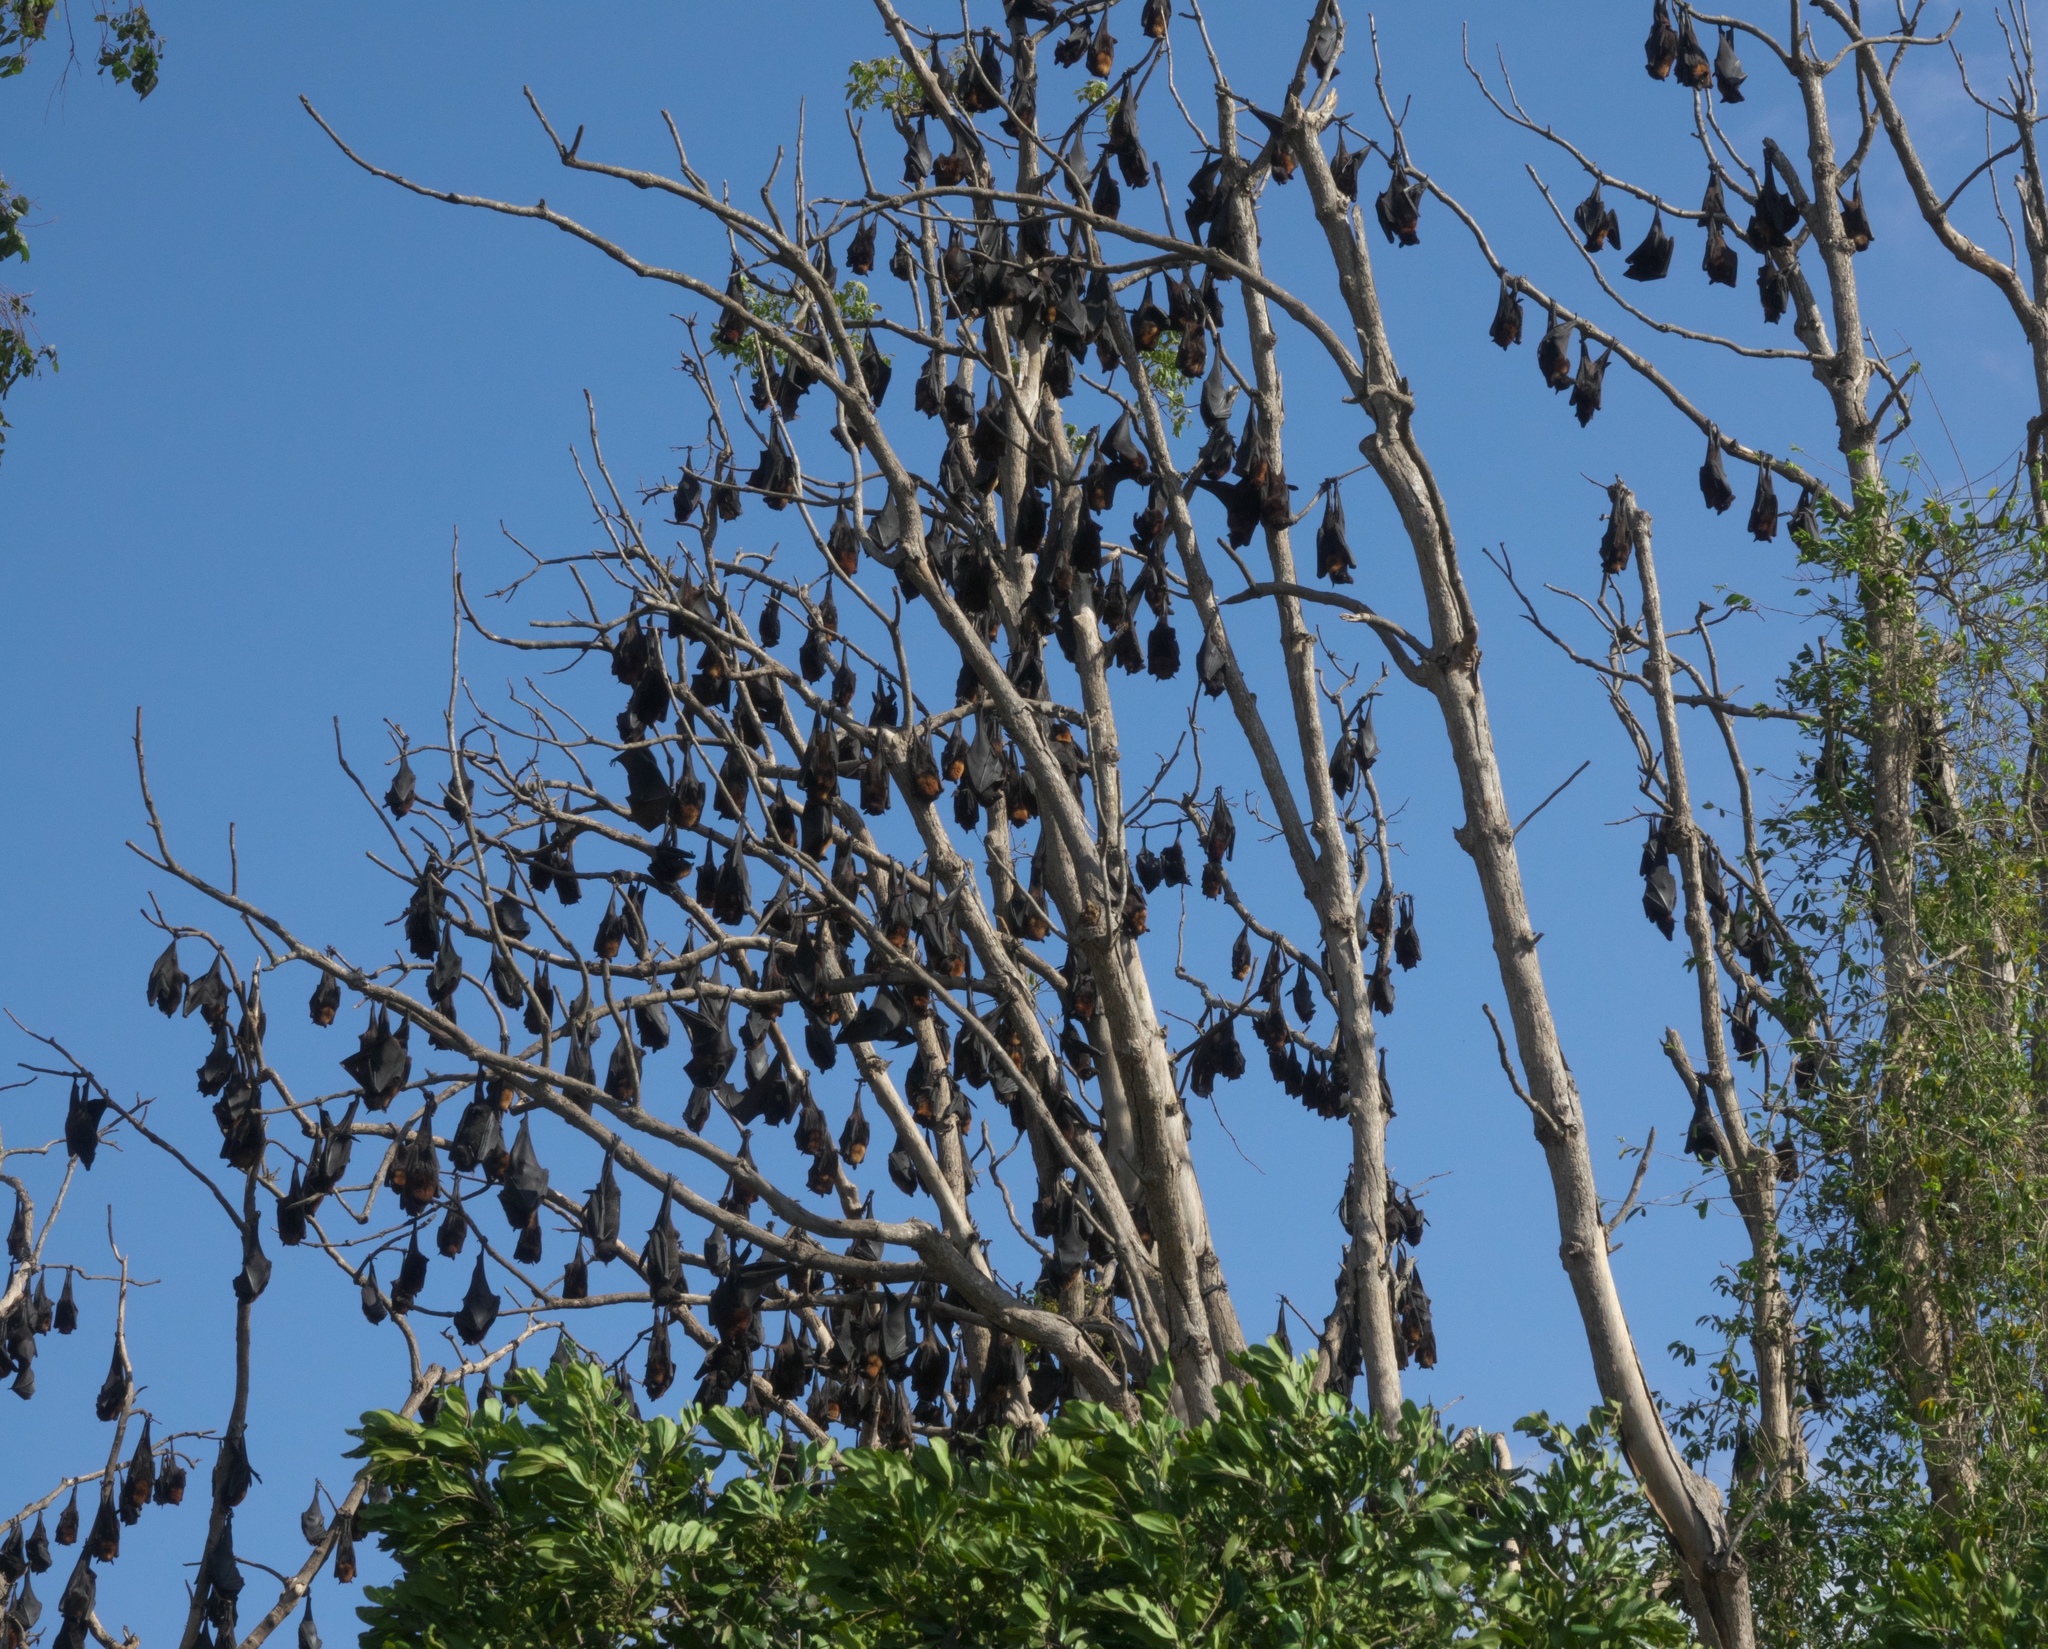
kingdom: Animalia
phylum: Chordata
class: Mammalia
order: Chiroptera
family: Pteropodidae
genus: Pteropus
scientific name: Pteropus alecto
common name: Black flying fox
